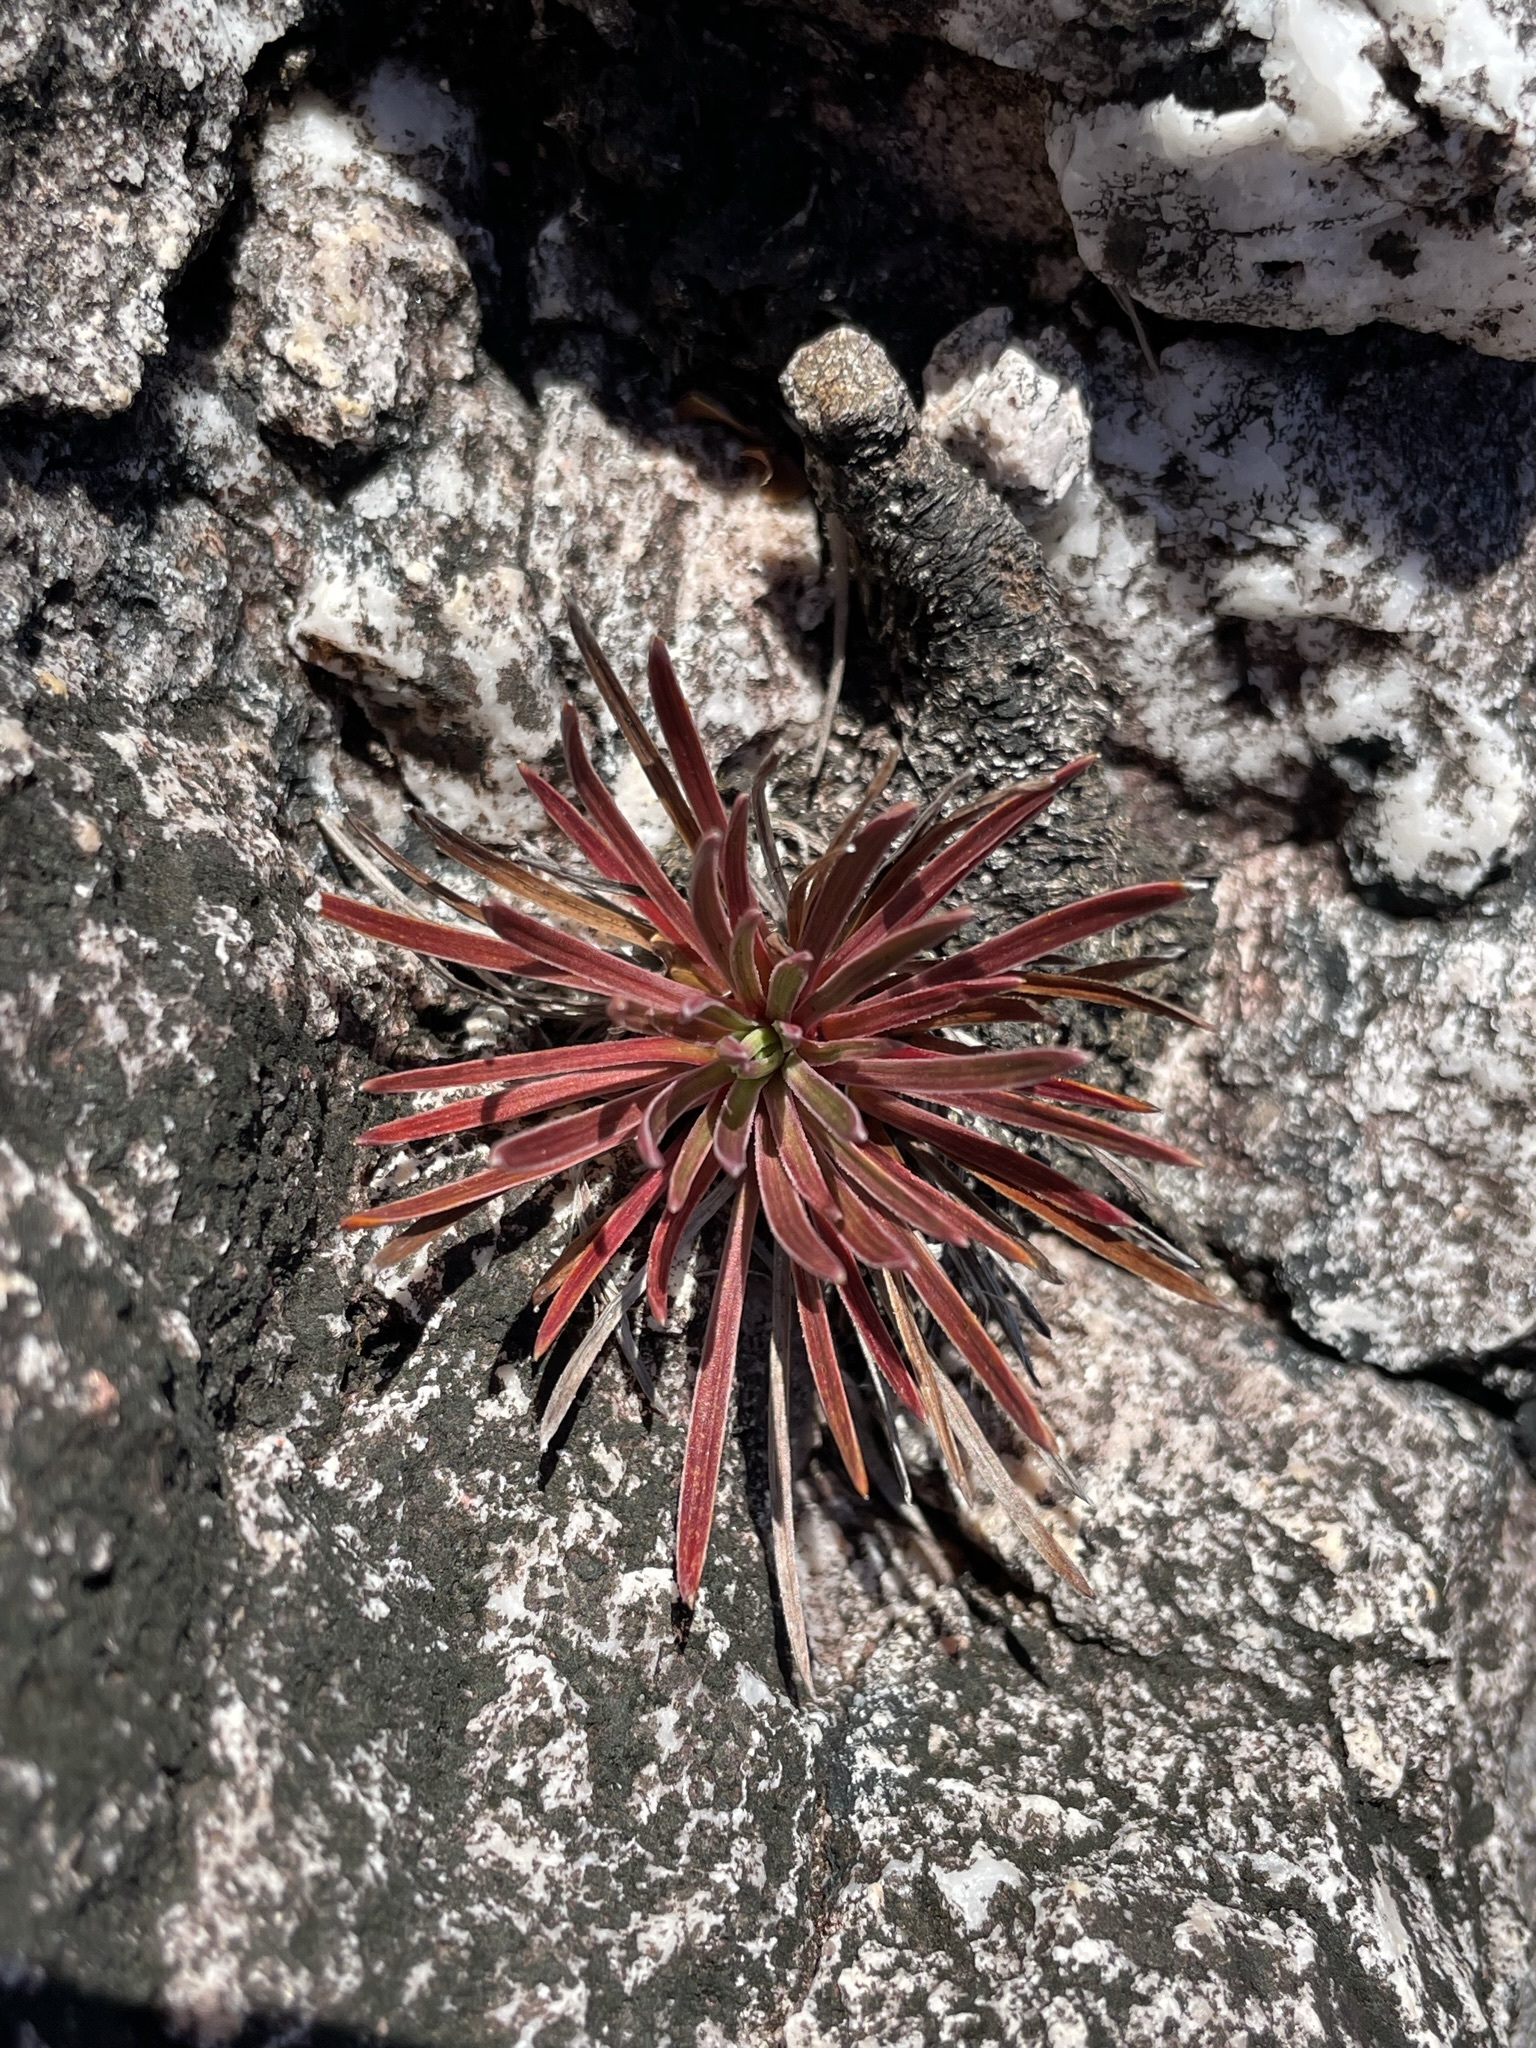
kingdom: Plantae
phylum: Tracheophyta
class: Magnoliopsida
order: Asterales
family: Stylidiaceae
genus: Stylidium
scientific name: Stylidium graminifolium
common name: Grass triggerplant
